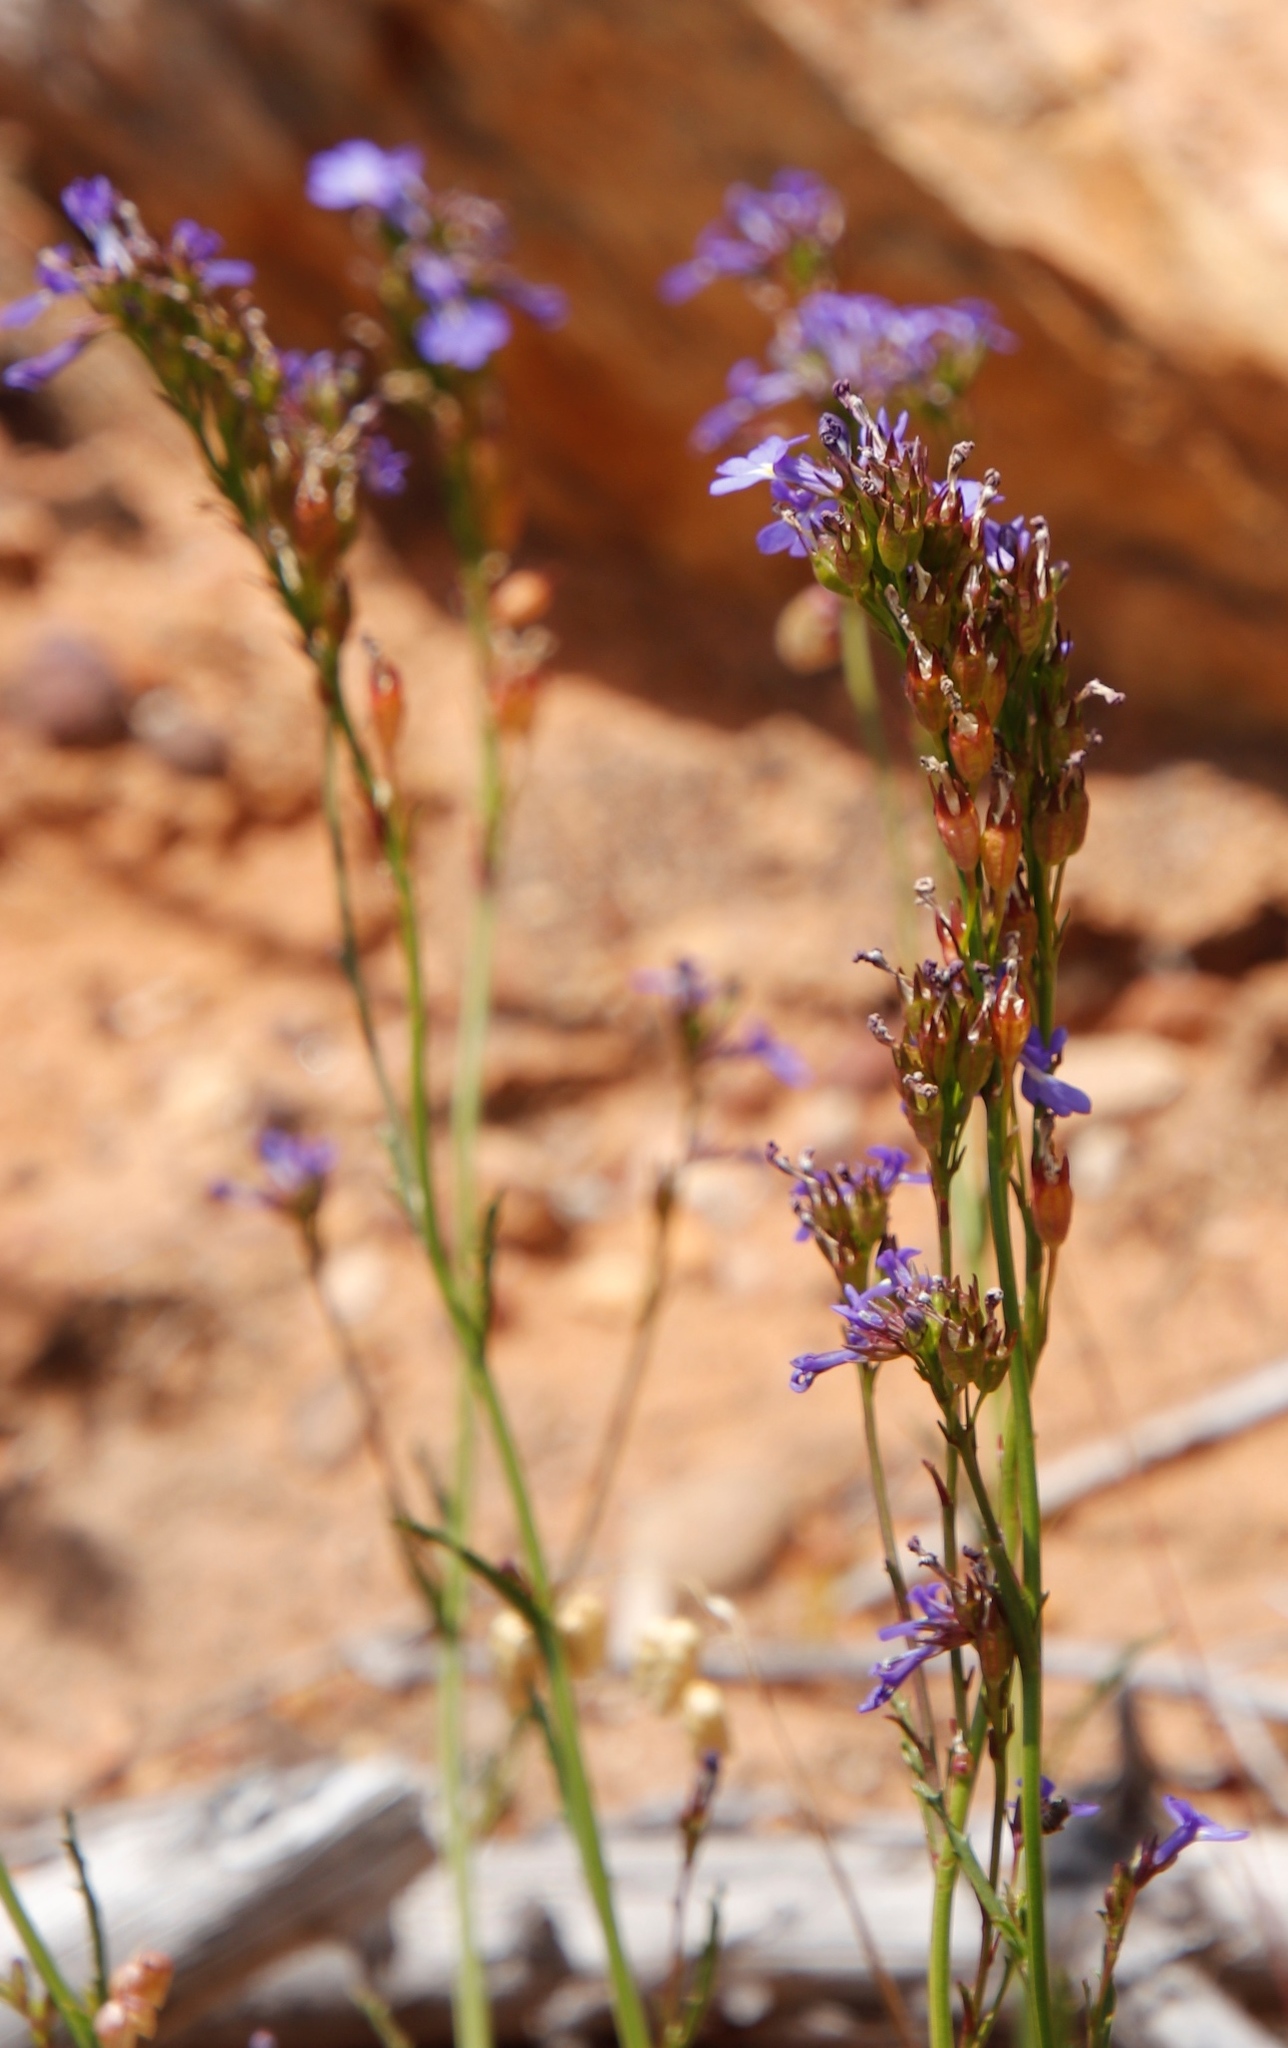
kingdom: Plantae
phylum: Tracheophyta
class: Magnoliopsida
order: Asterales
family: Campanulaceae
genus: Lobelia
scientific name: Lobelia comosa
